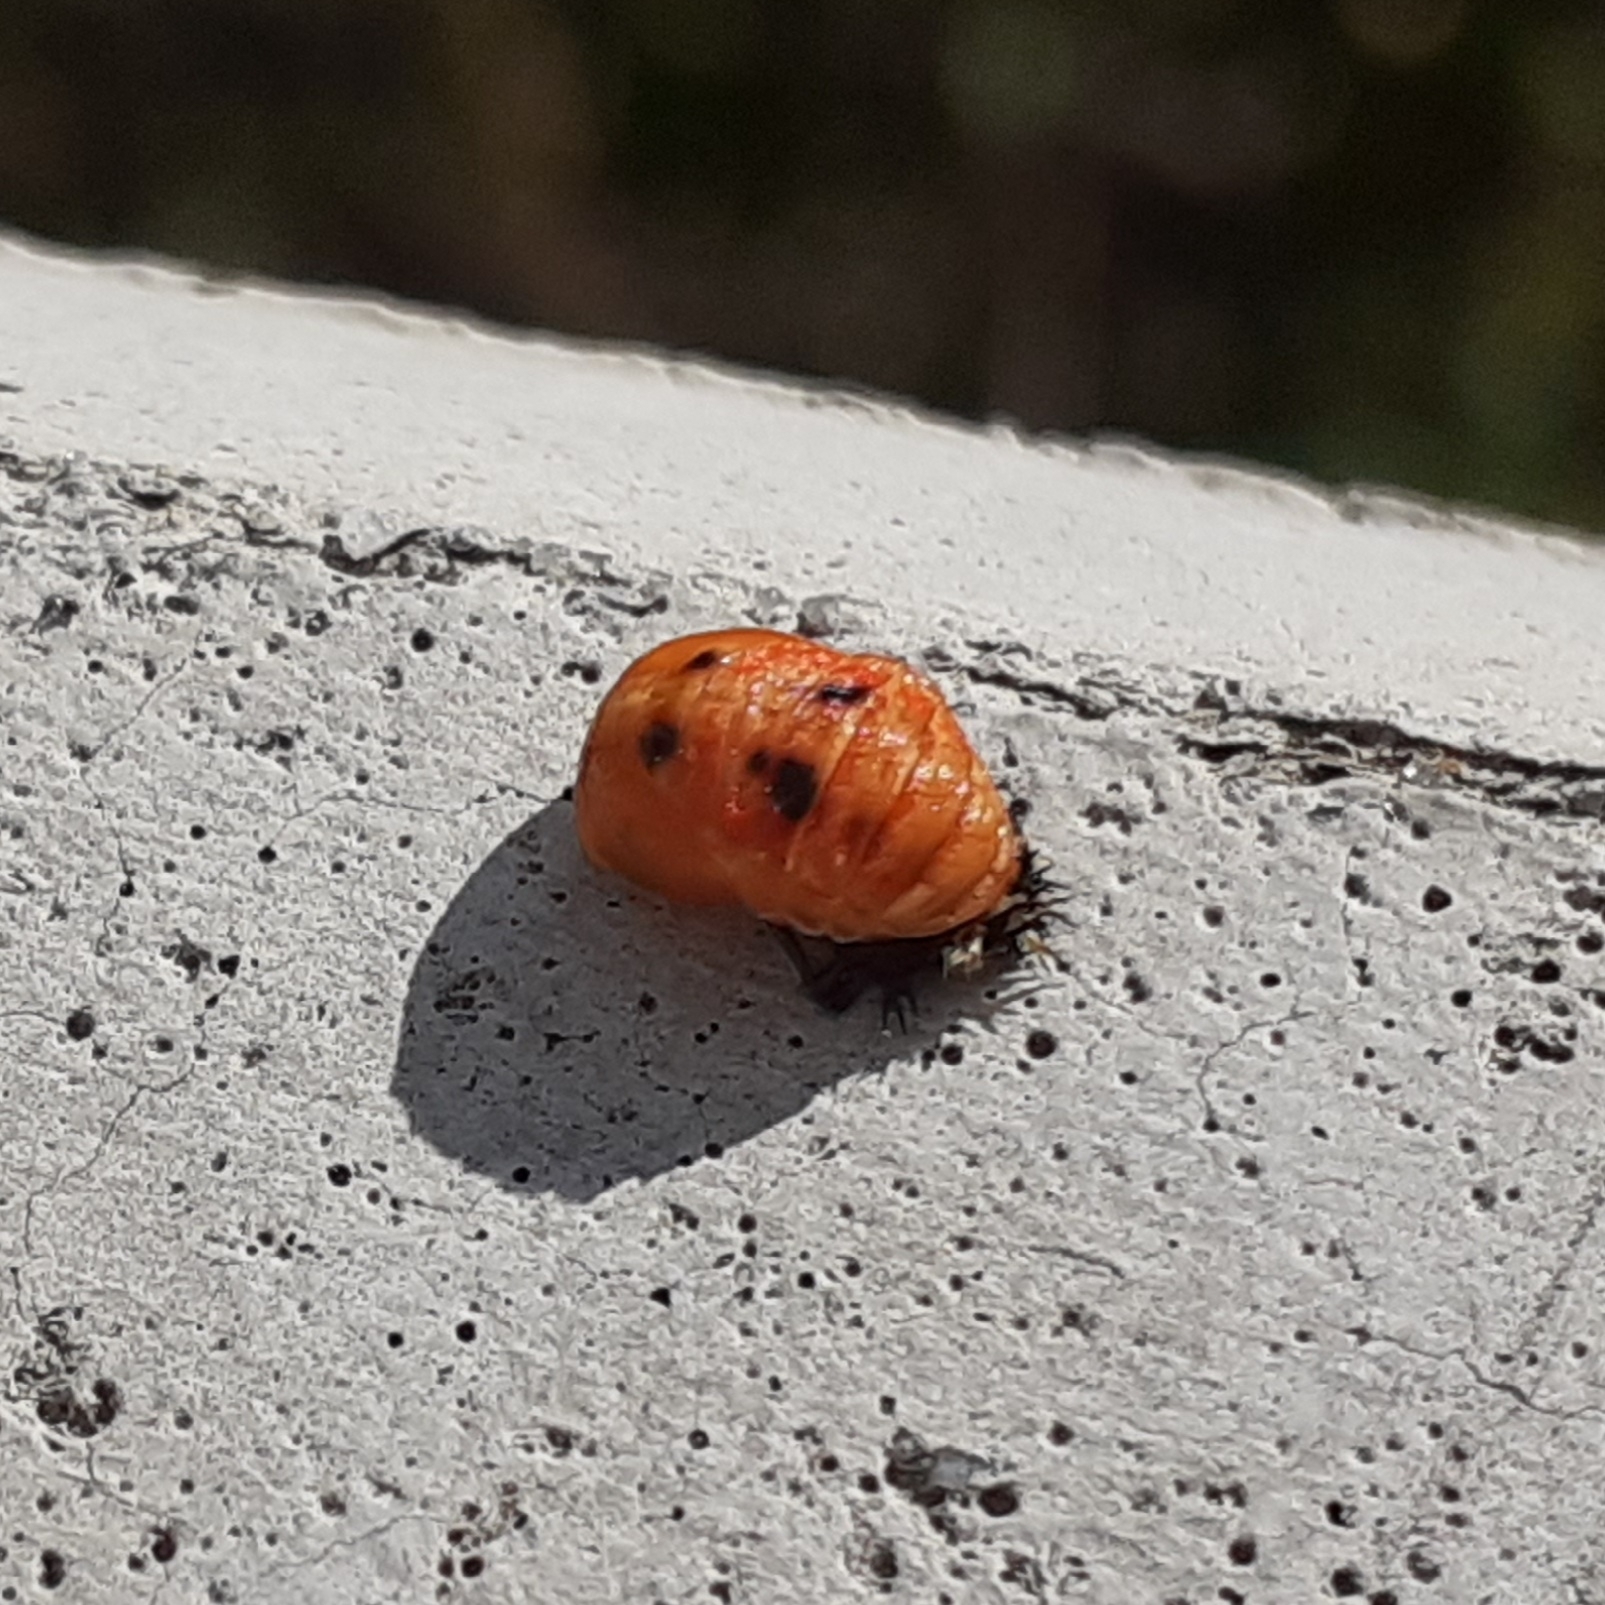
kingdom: Animalia
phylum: Arthropoda
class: Insecta
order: Coleoptera
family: Coccinellidae
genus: Harmonia
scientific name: Harmonia axyridis
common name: Harlequin ladybird
